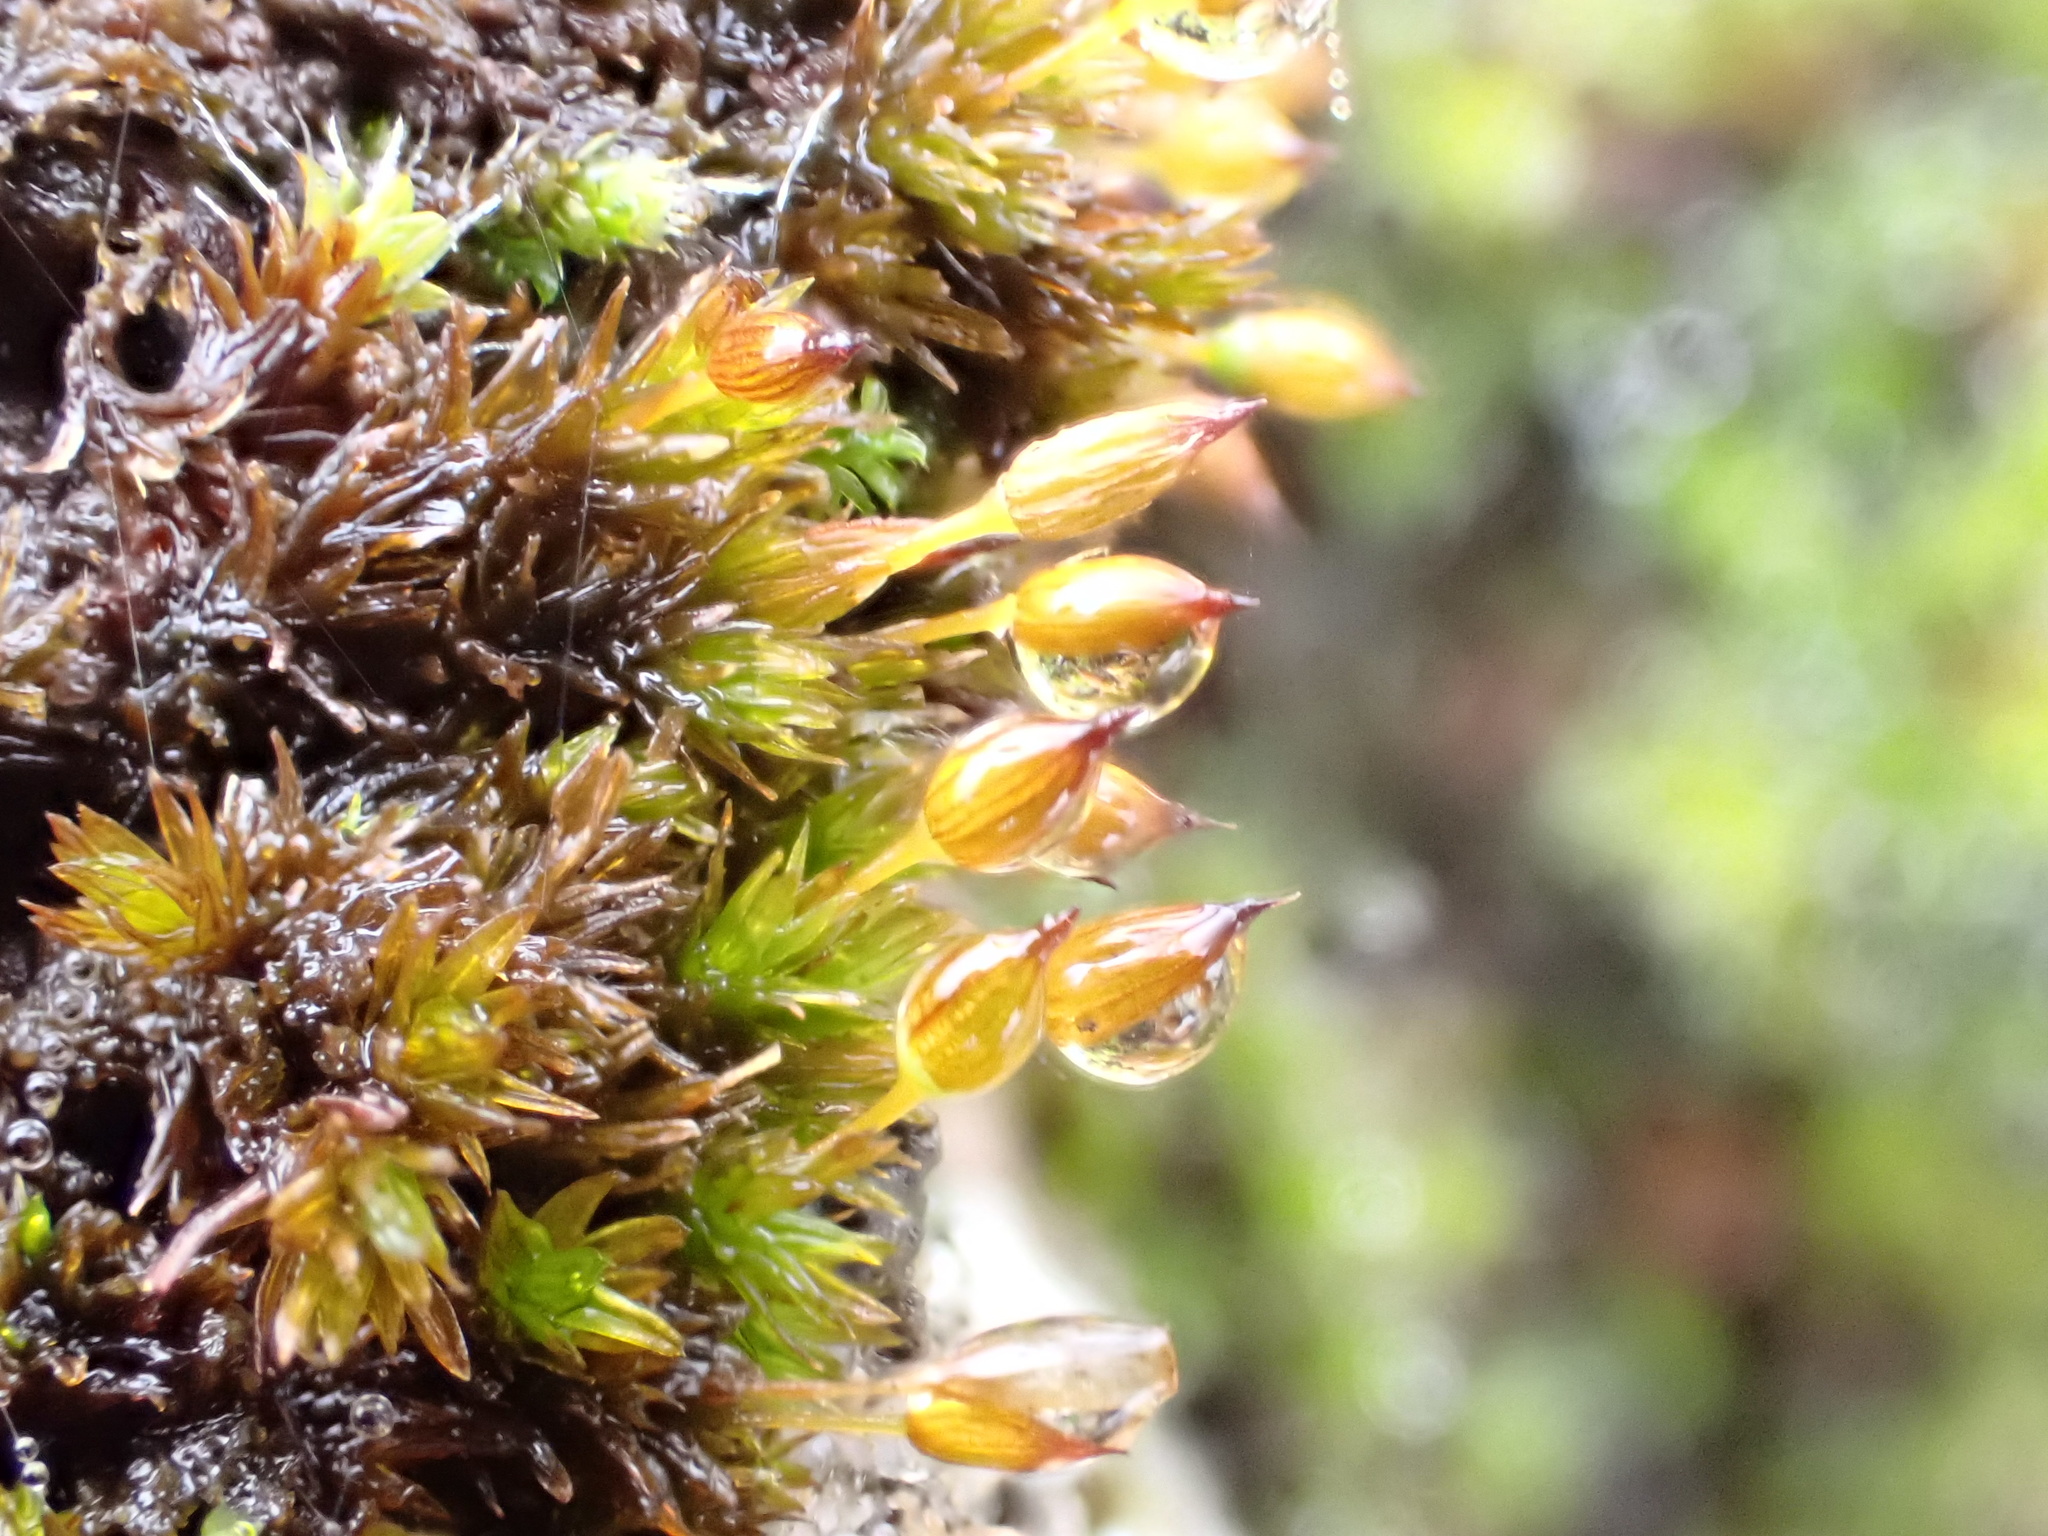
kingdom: Plantae
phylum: Bryophyta
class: Bryopsida
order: Orthotrichales
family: Orthotrichaceae
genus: Orthotrichum
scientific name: Orthotrichum anomalum
